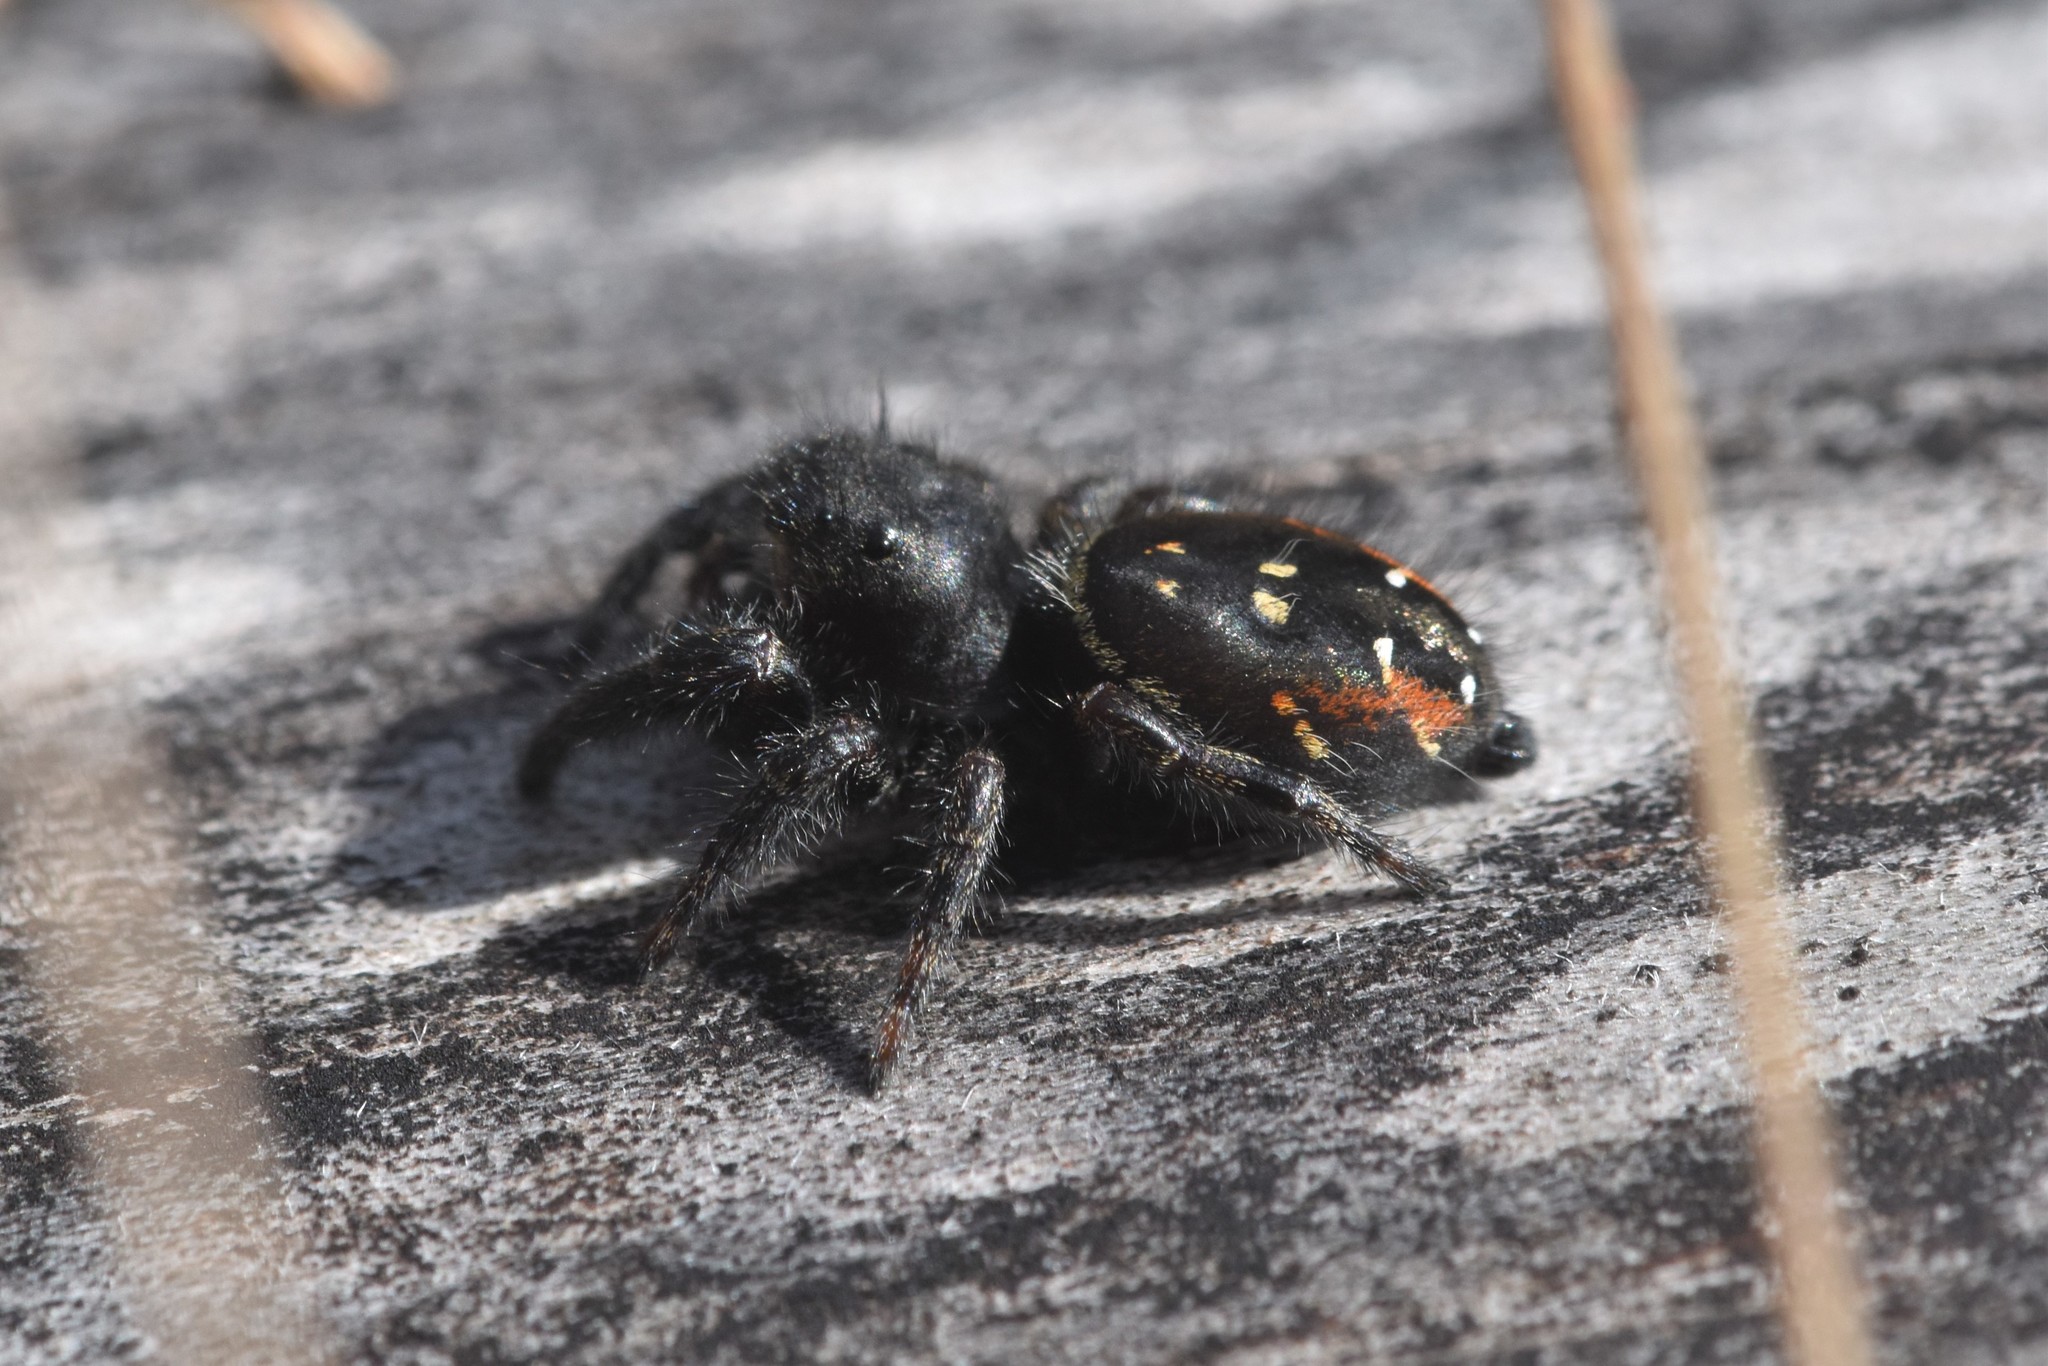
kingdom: Animalia
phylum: Arthropoda
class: Arachnida
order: Araneae
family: Salticidae
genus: Phidippus
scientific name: Phidippus johnsoni
